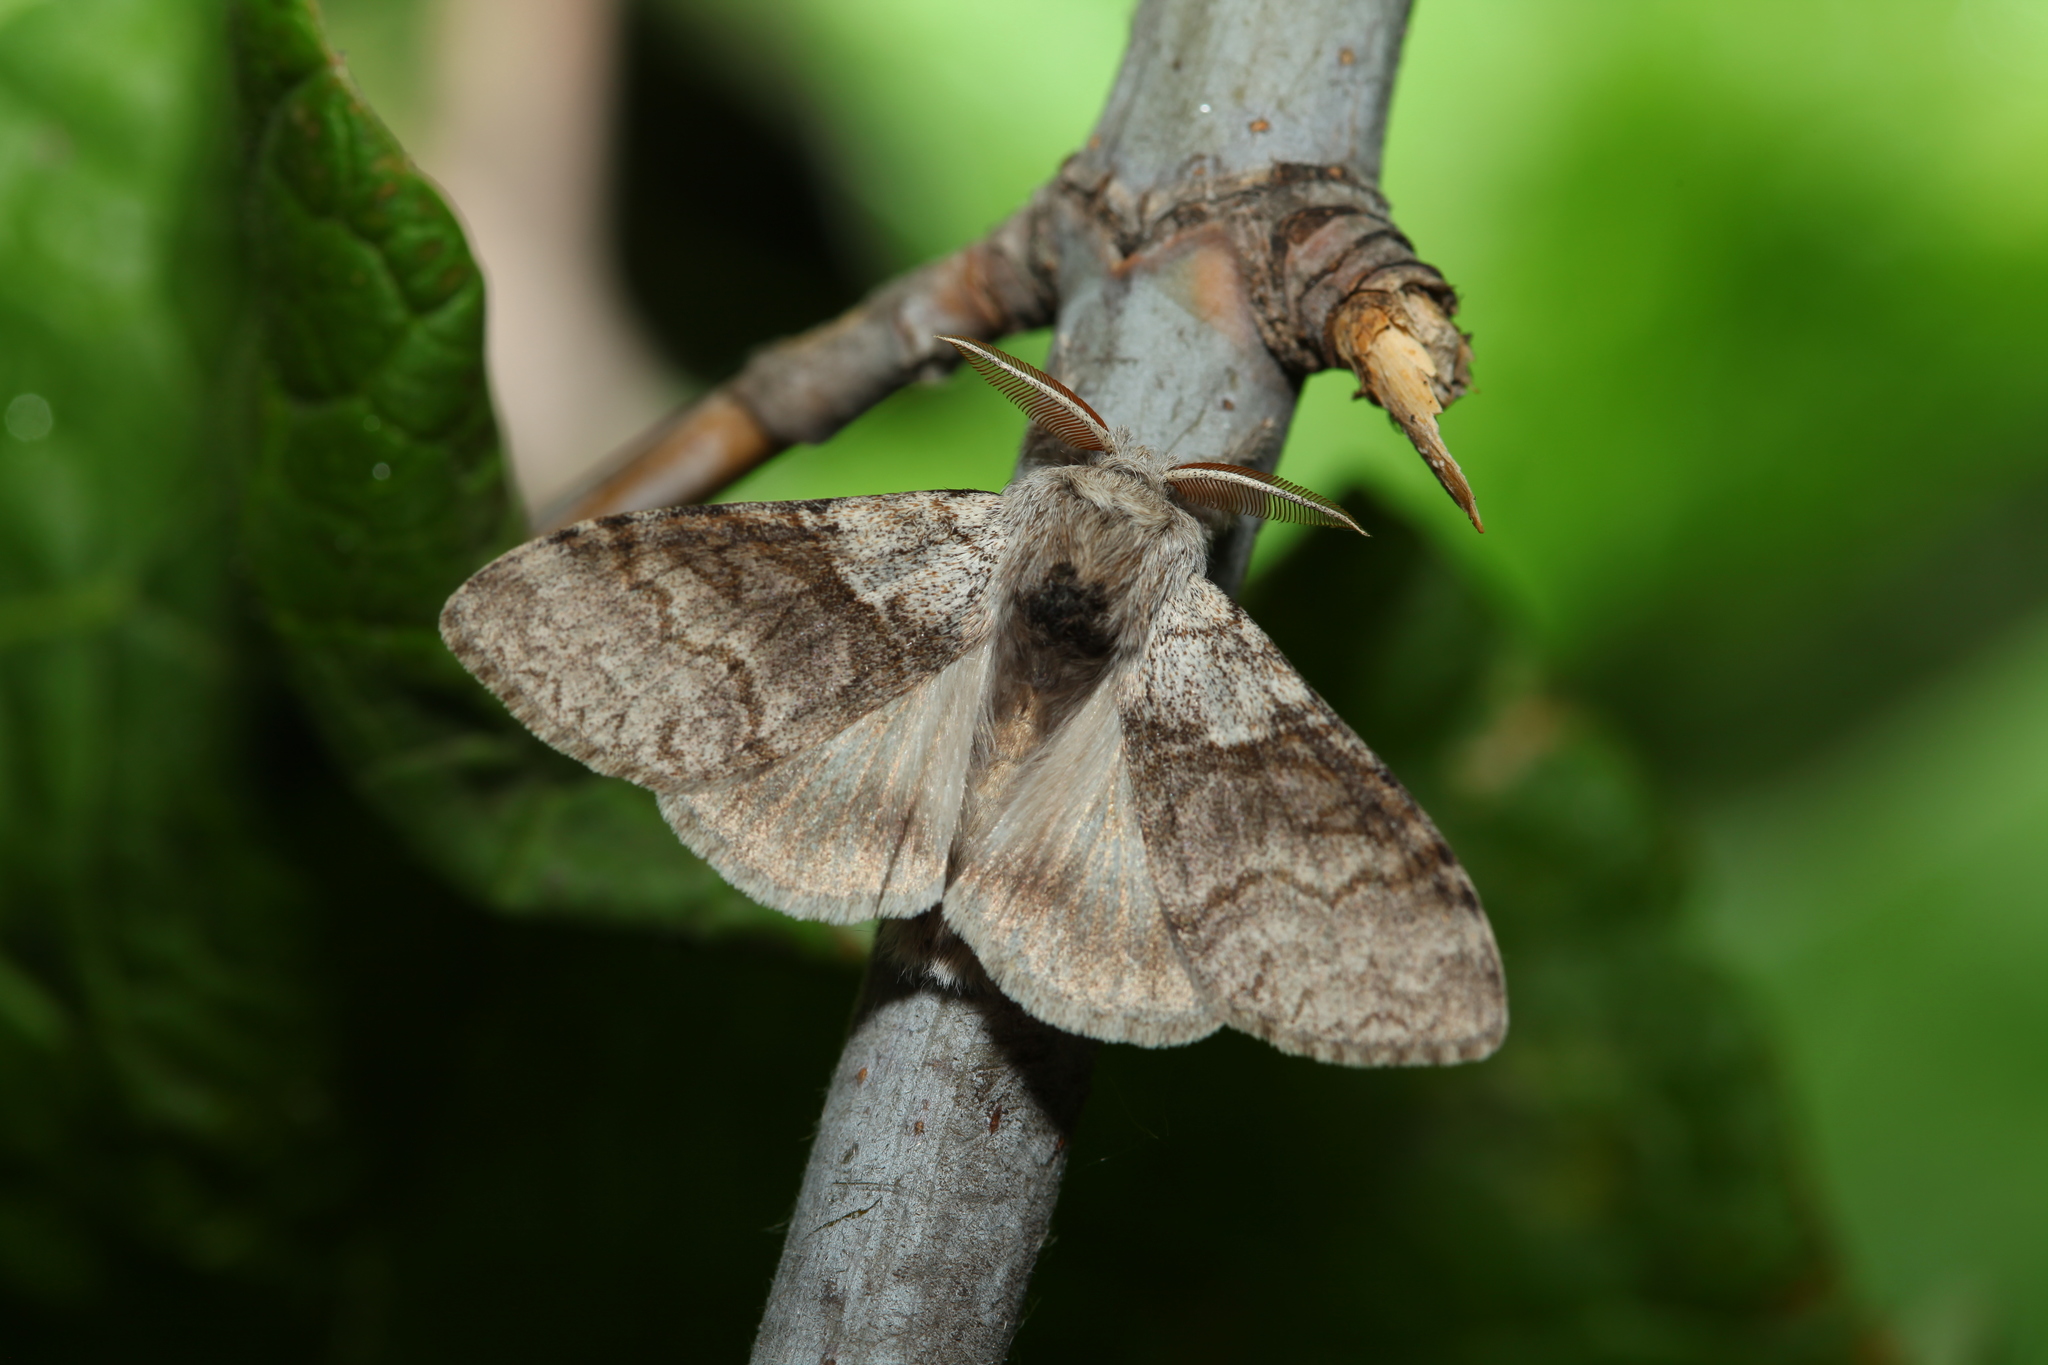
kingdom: Animalia
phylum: Arthropoda
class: Insecta
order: Lepidoptera
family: Erebidae
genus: Calliteara
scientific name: Calliteara pudibunda
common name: Pale tussock
